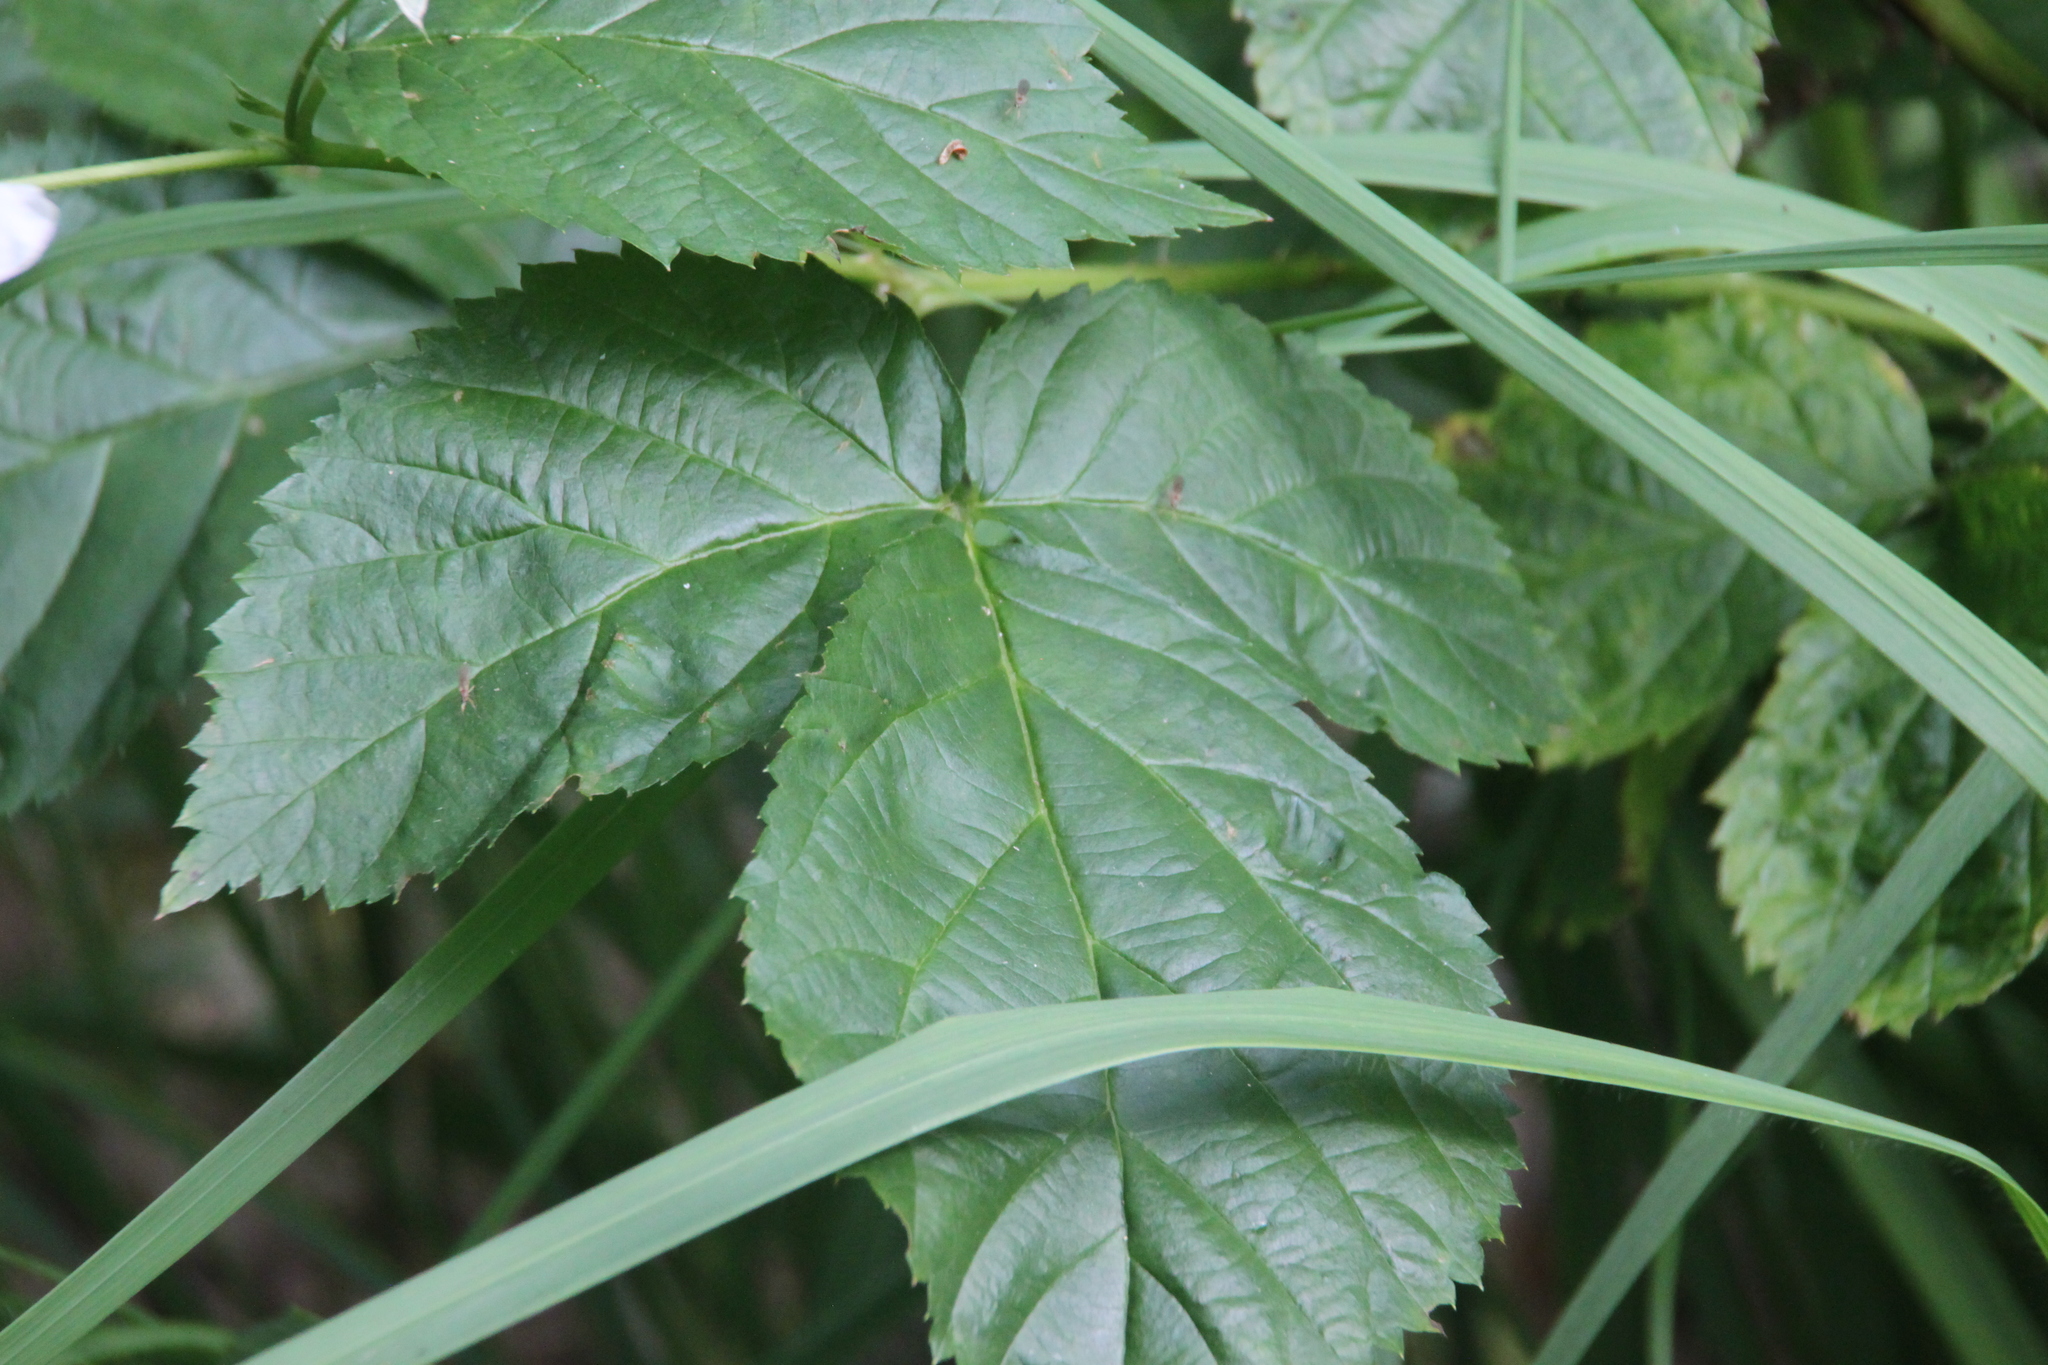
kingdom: Plantae
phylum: Tracheophyta
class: Magnoliopsida
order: Rosales
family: Rosaceae
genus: Rubus
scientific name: Rubus polonicus
